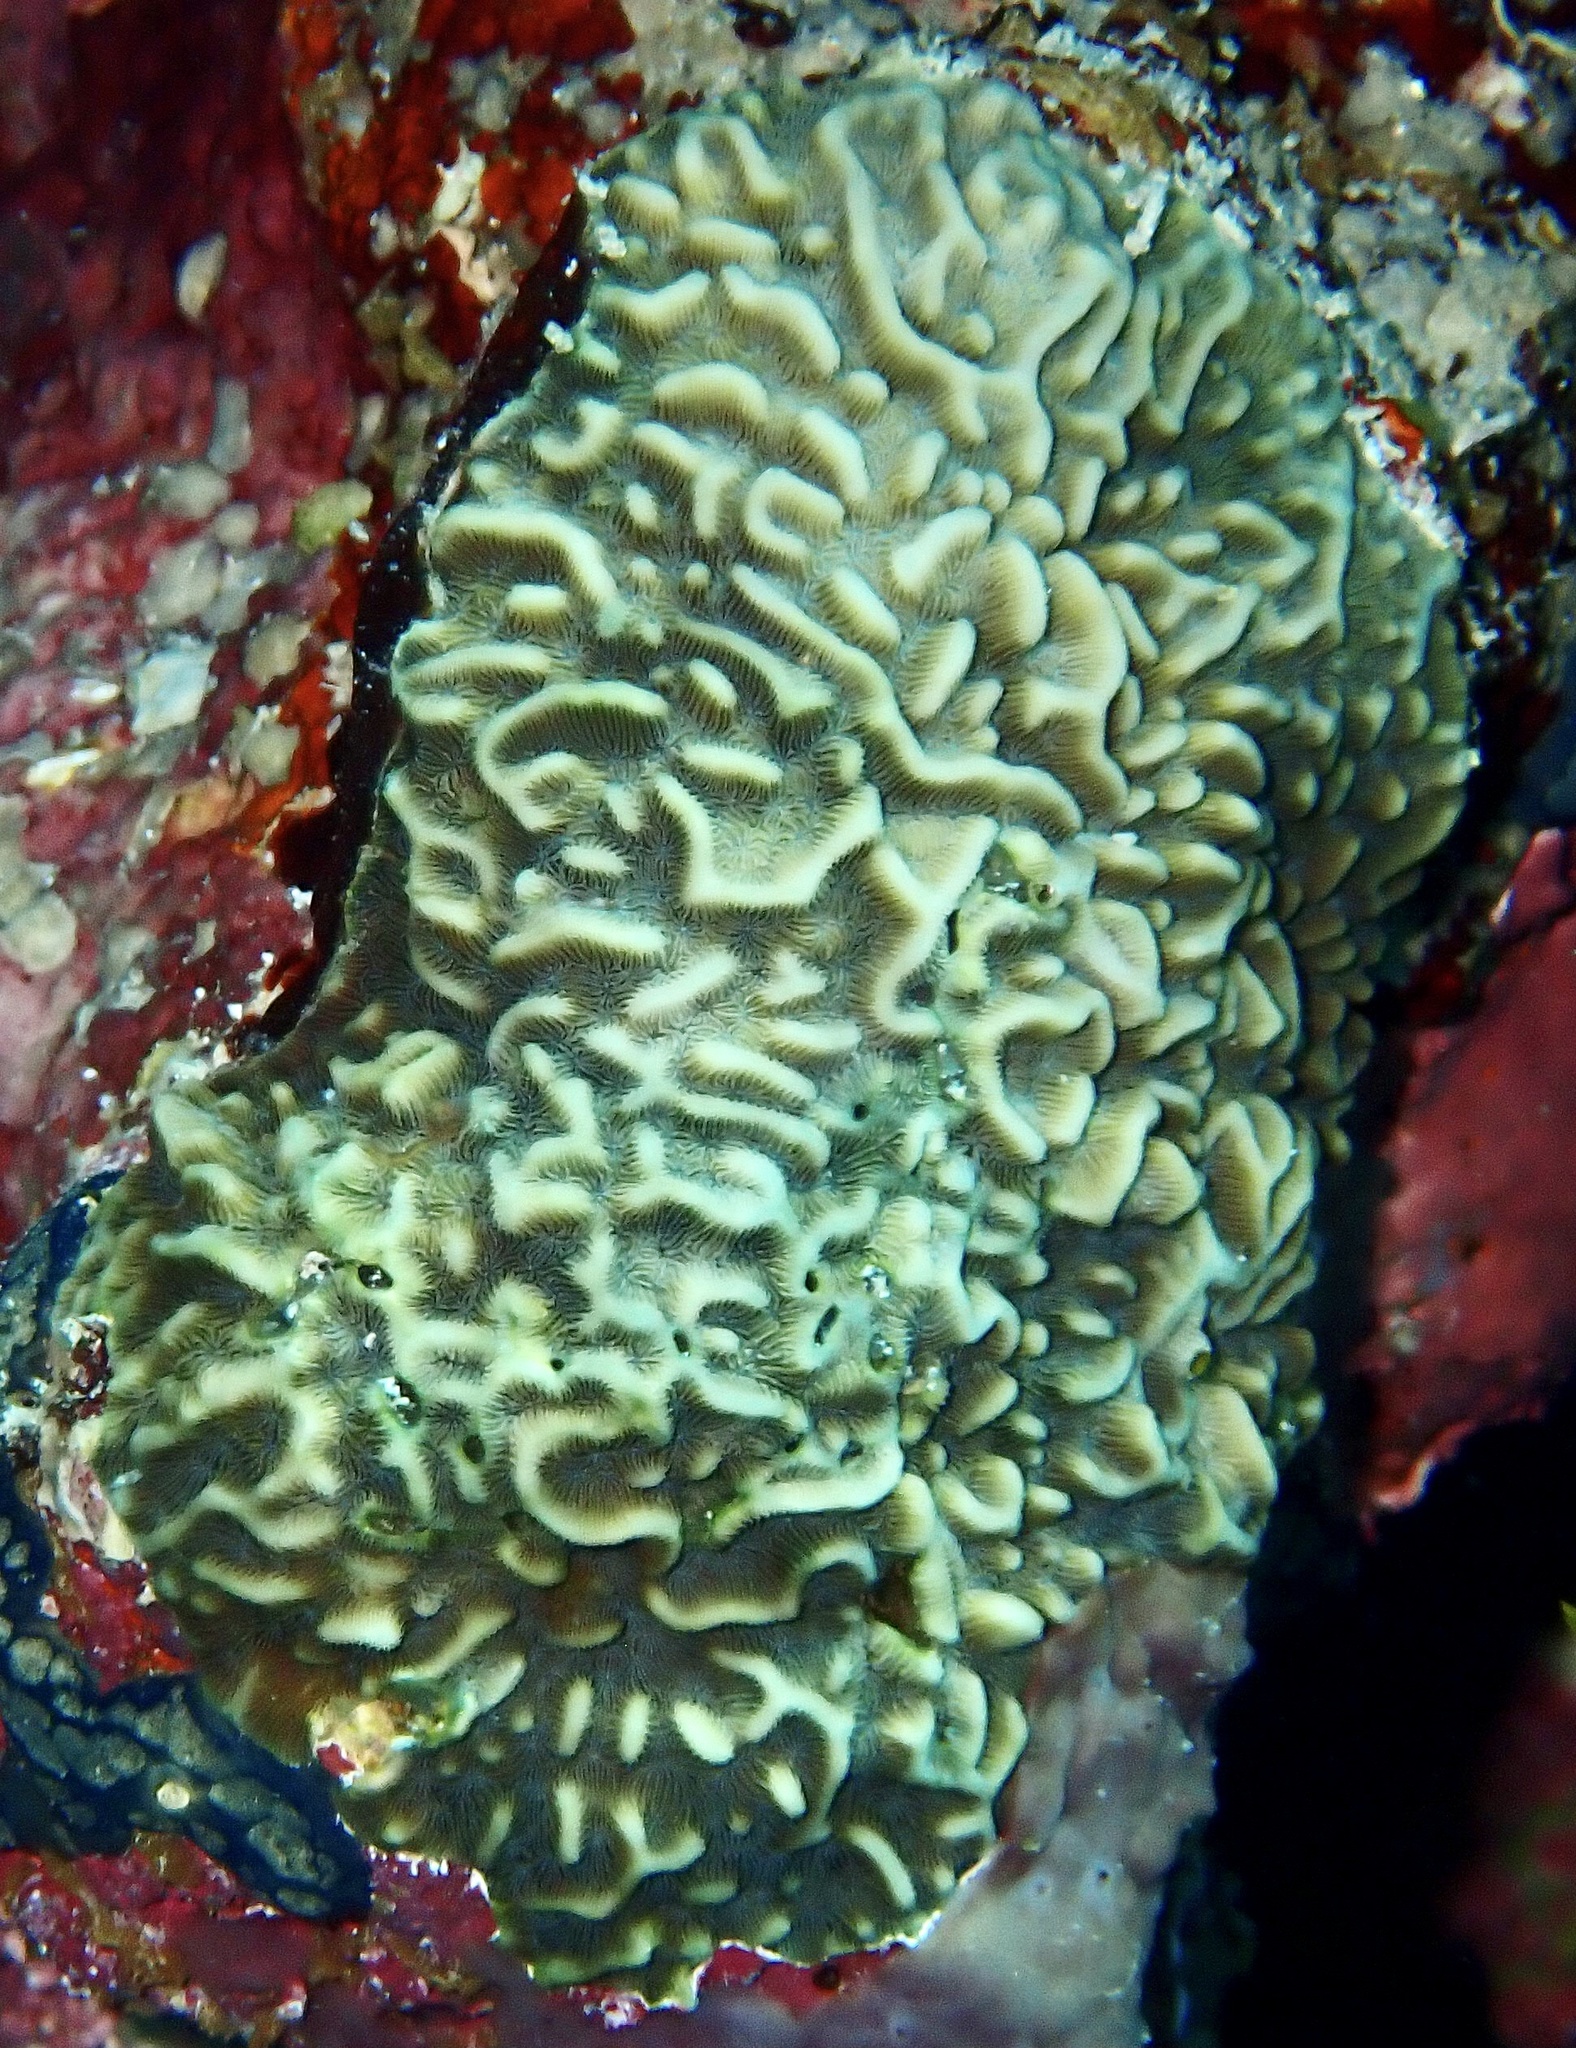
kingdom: Animalia
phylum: Cnidaria
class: Anthozoa
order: Scleractinia
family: Agariciidae
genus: Pavona
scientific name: Pavona varians
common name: Leaf coral
